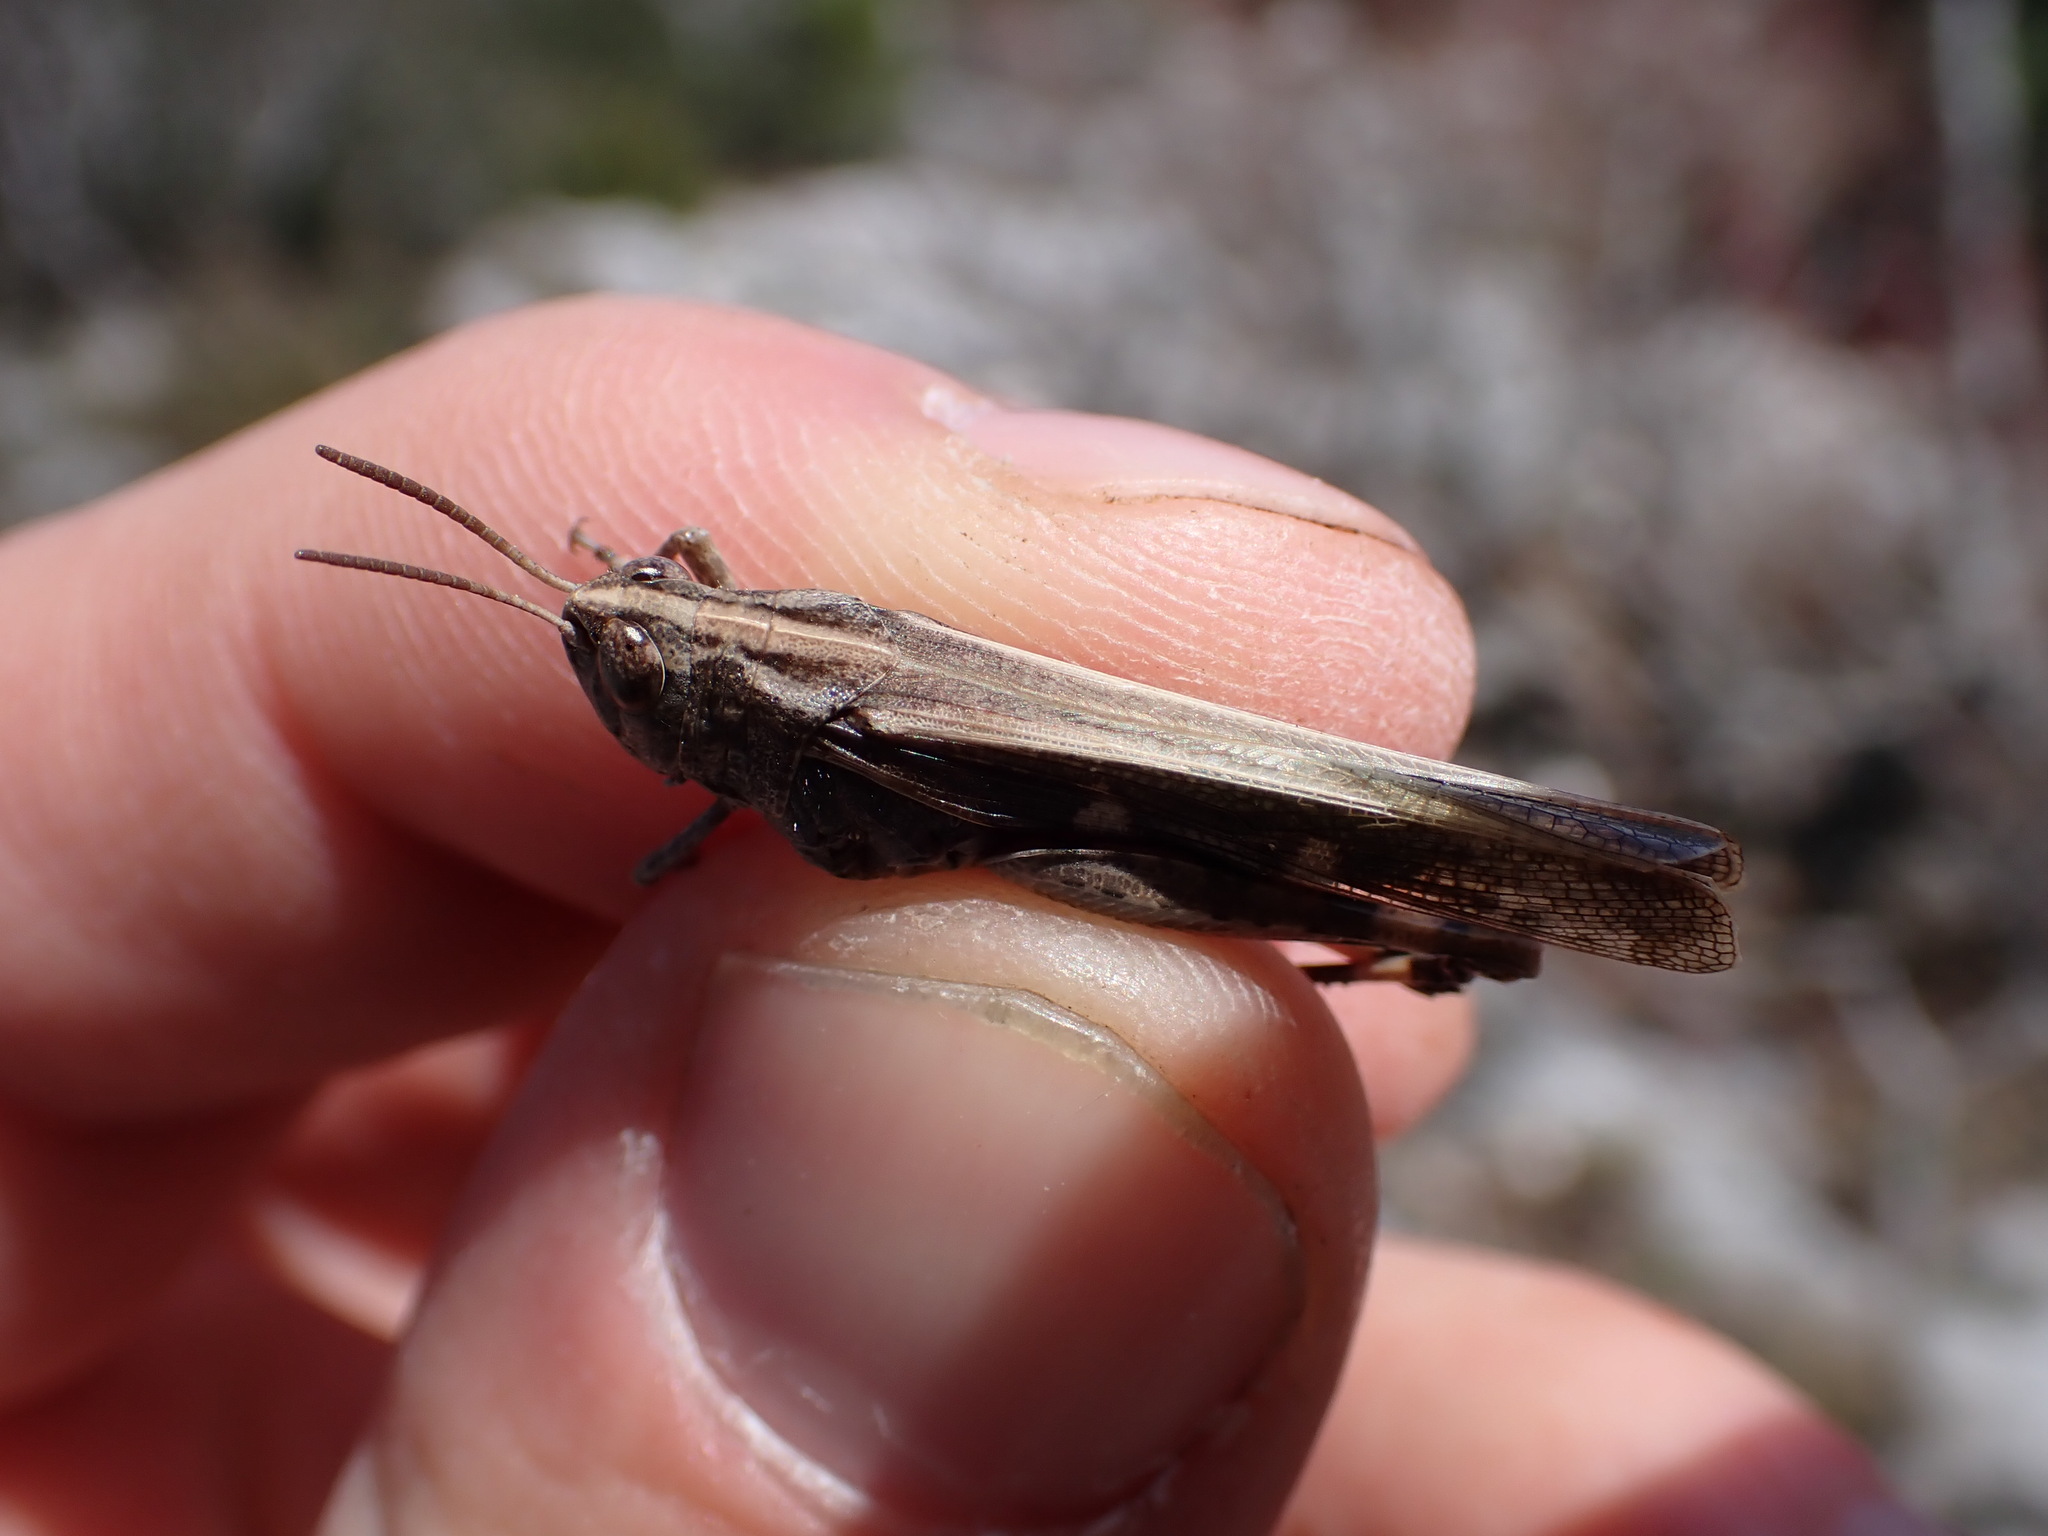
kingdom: Animalia
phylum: Arthropoda
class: Insecta
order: Orthoptera
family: Acrididae
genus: Aiolopus
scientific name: Aiolopus strepens
